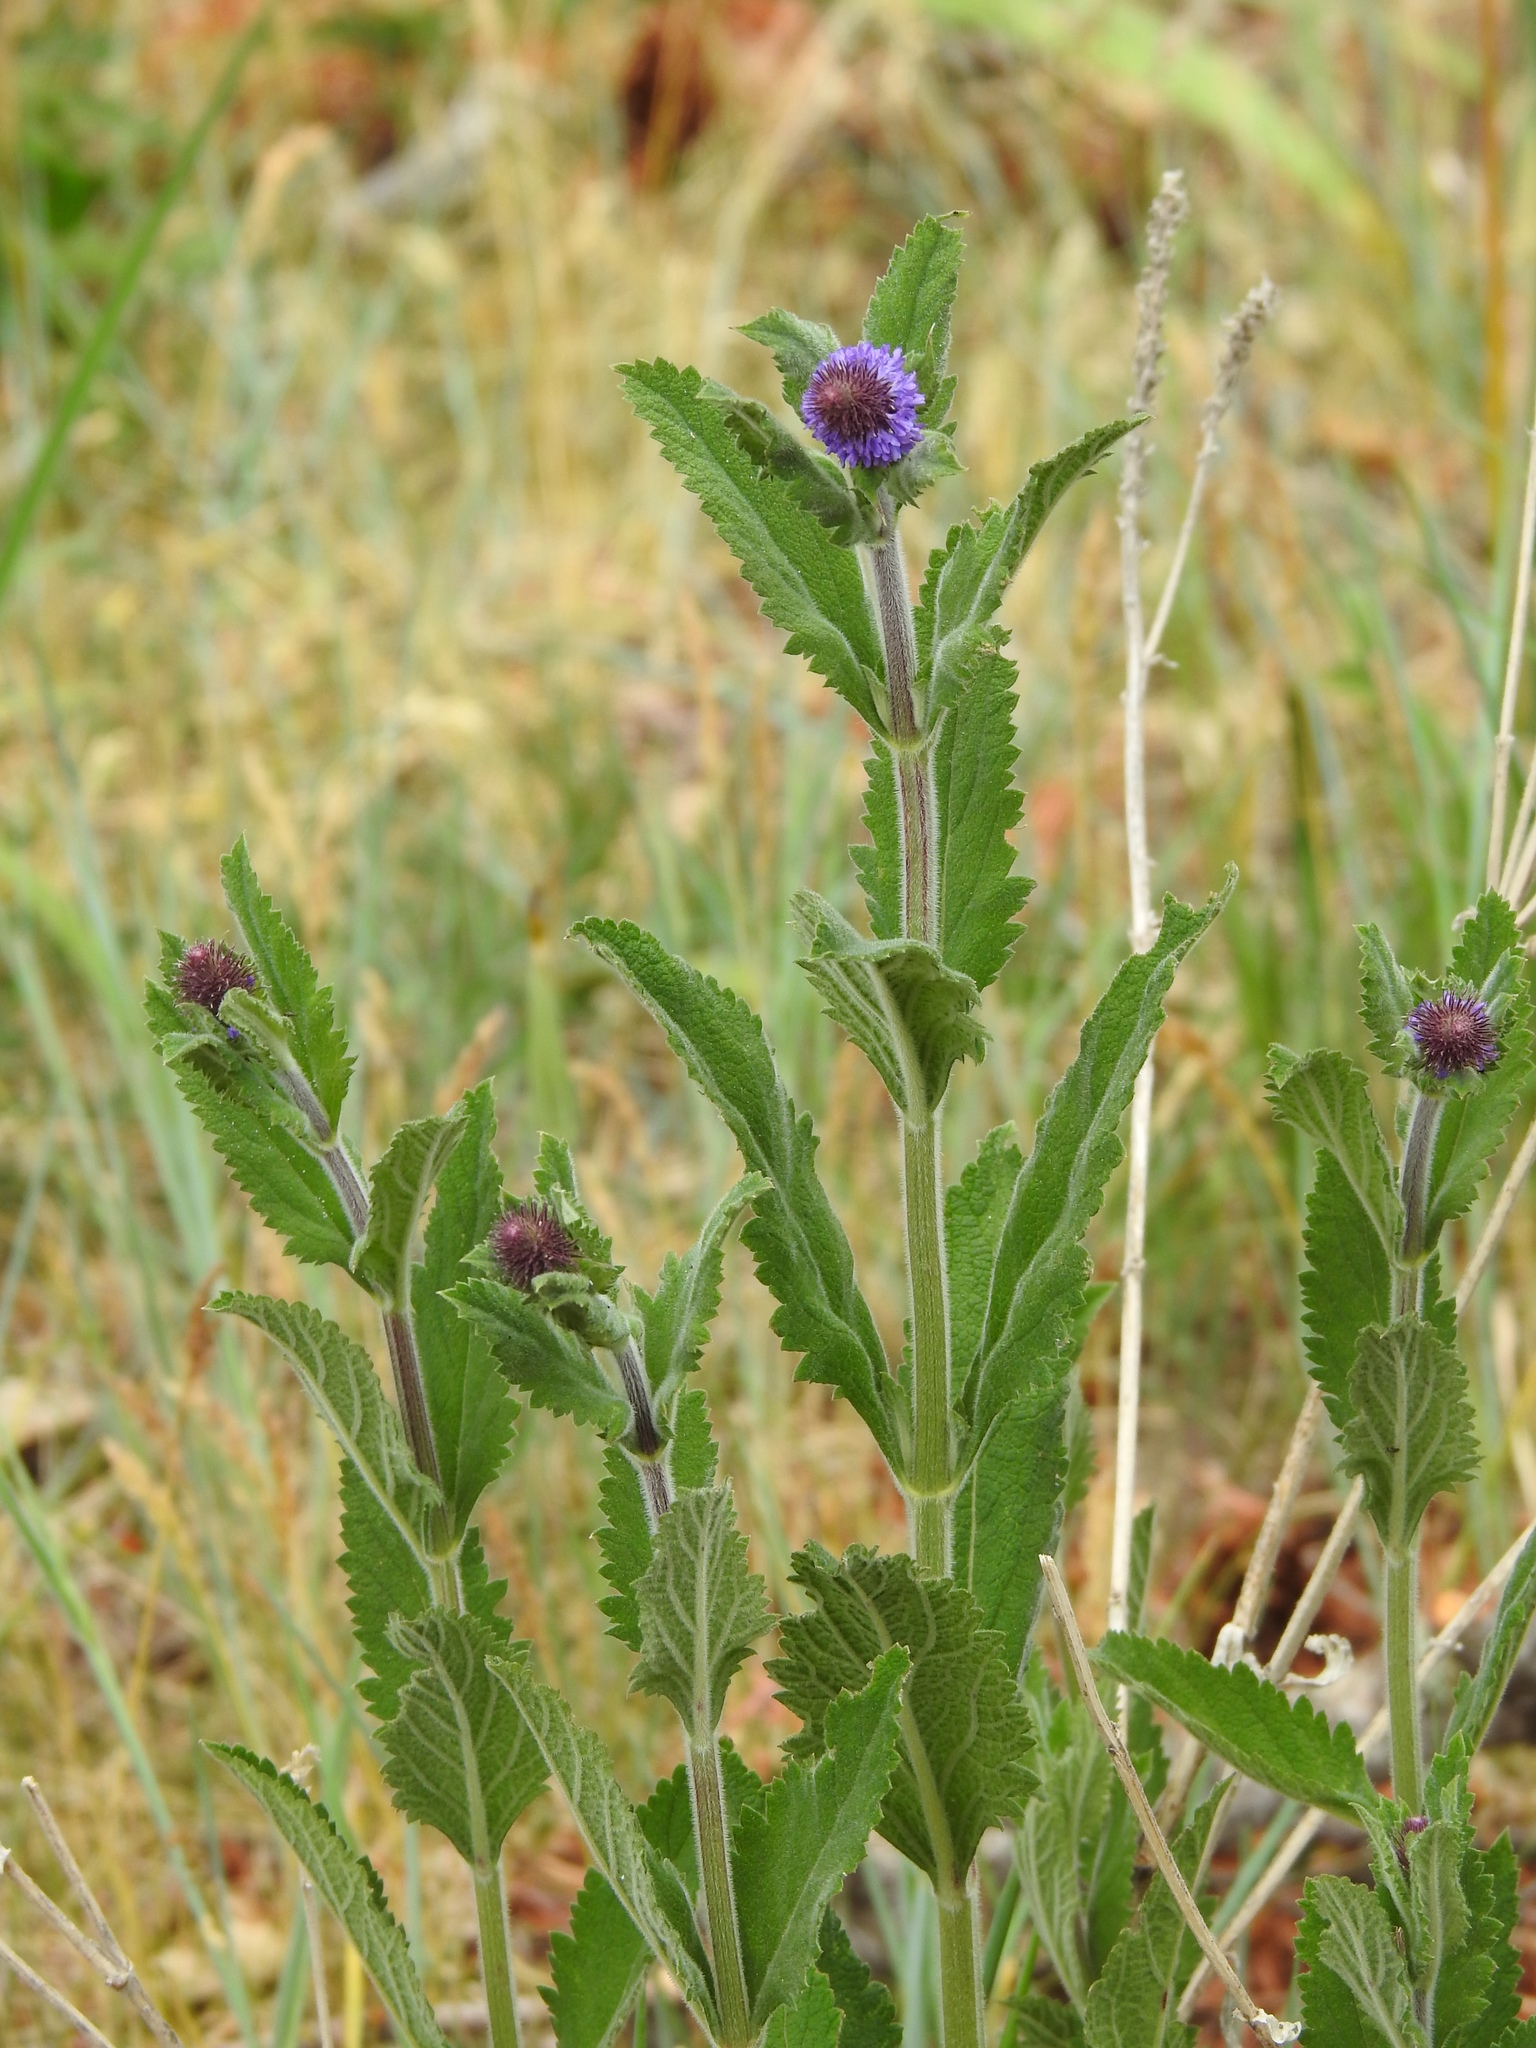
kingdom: Plantae
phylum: Tracheophyta
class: Magnoliopsida
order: Lamiales
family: Verbenaceae
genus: Verbena
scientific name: Verbena macdougalii
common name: New mexico vervain
